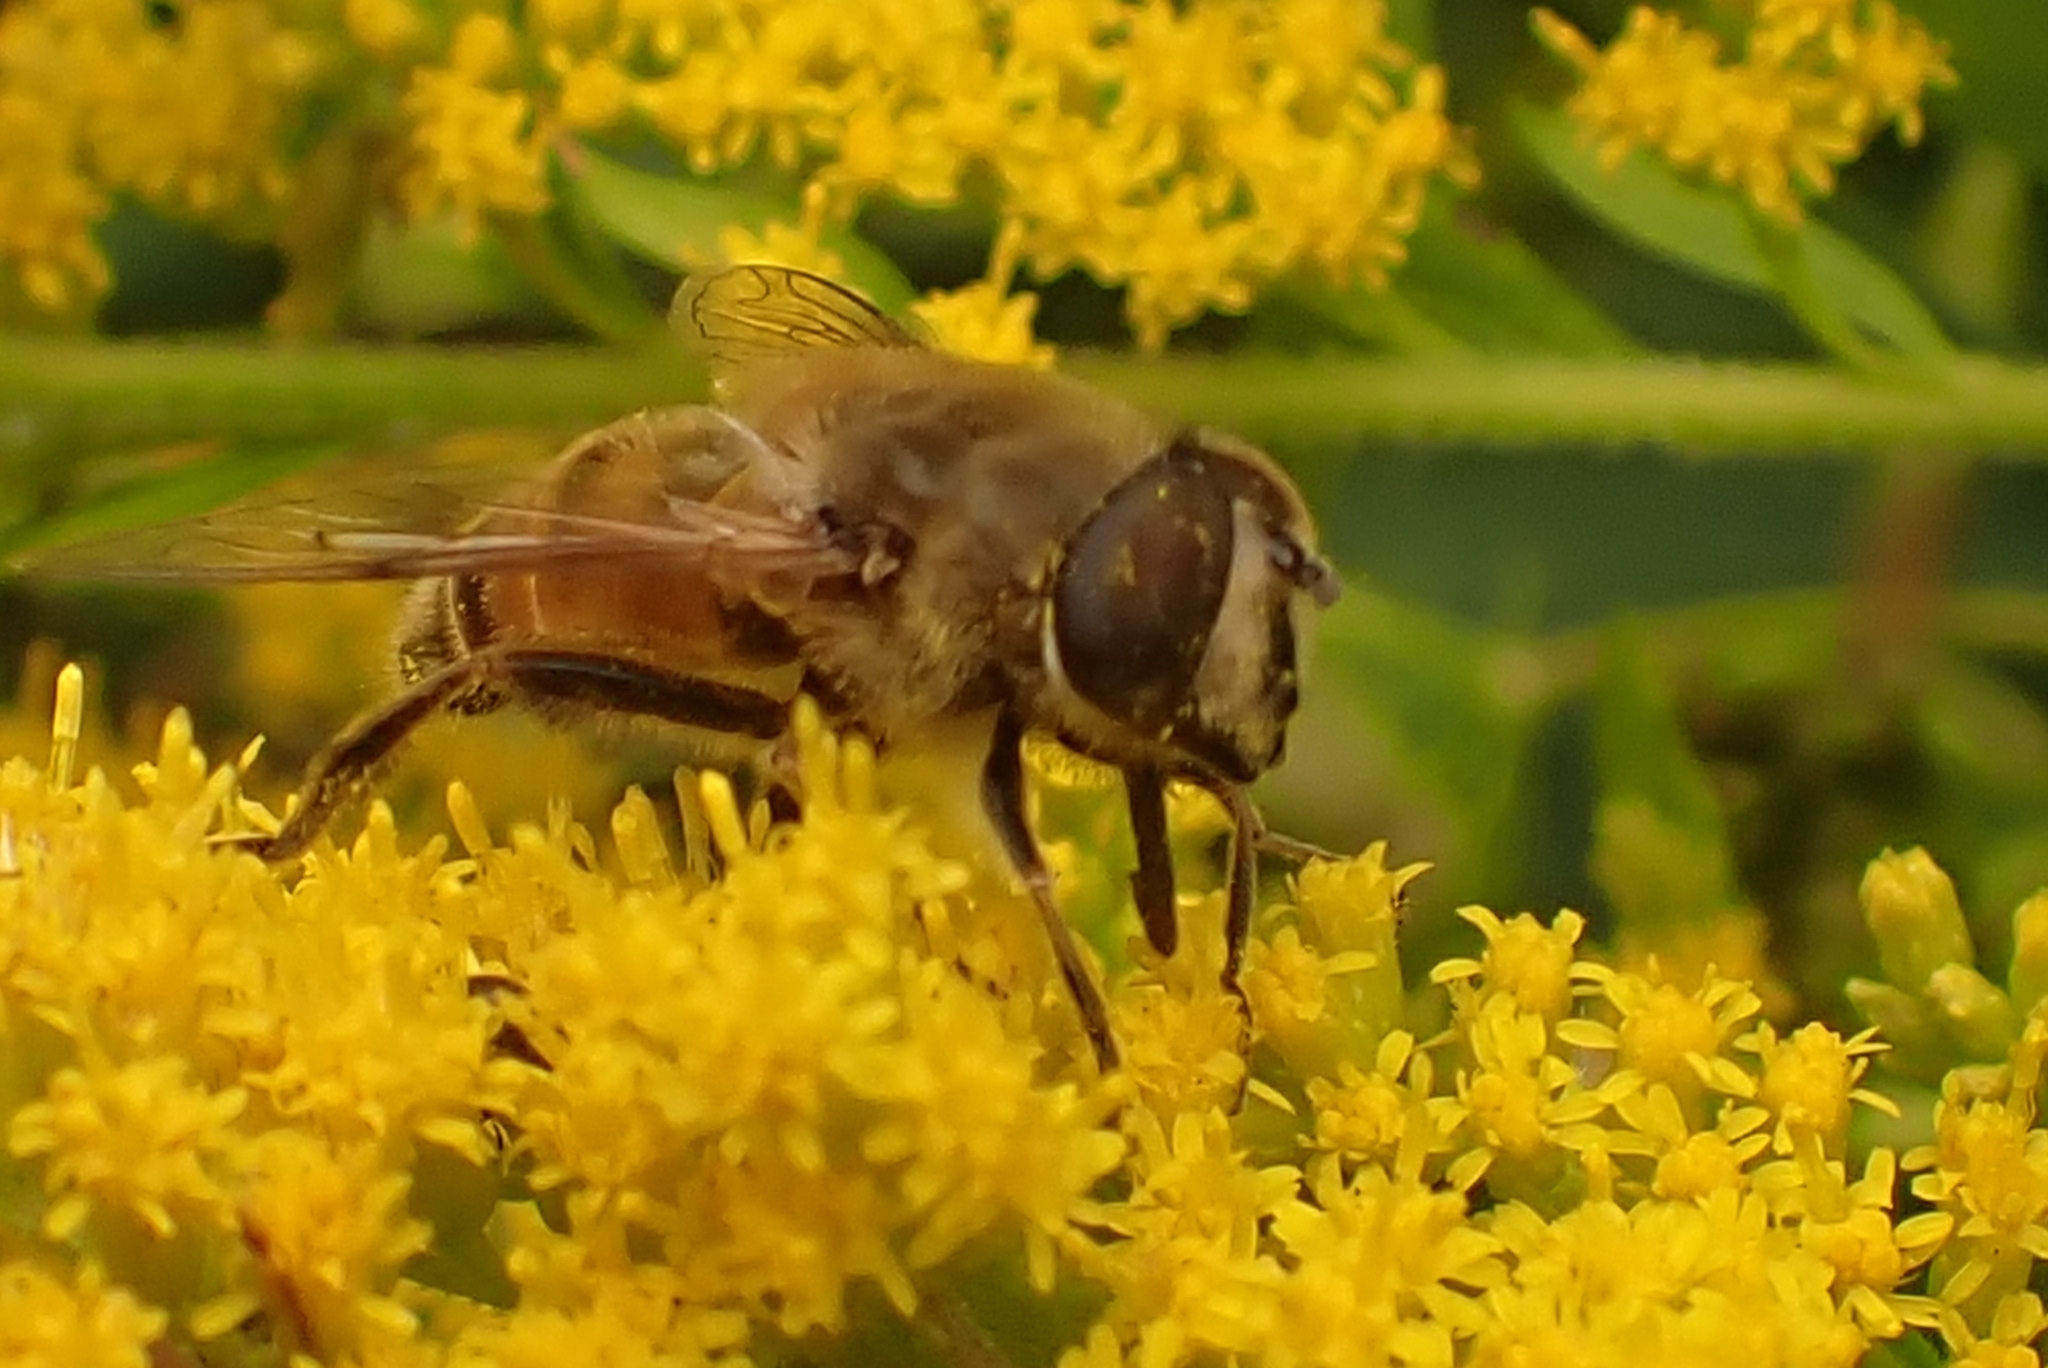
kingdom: Animalia
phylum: Arthropoda
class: Insecta
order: Diptera
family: Syrphidae
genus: Eristalis
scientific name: Eristalis tenax
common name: Drone fly
